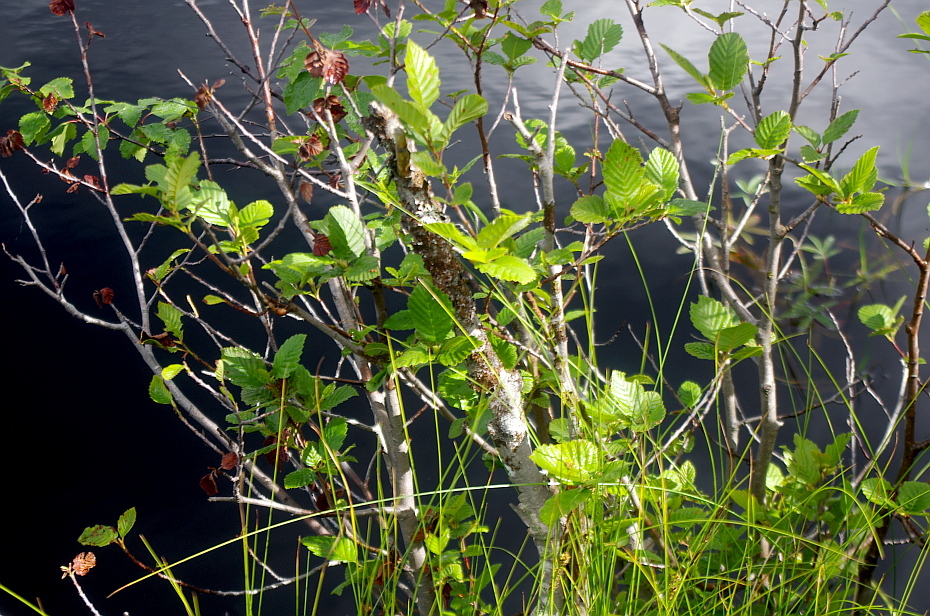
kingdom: Plantae
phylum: Tracheophyta
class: Magnoliopsida
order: Fagales
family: Betulaceae
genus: Alnus
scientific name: Alnus incana
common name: Grey alder
